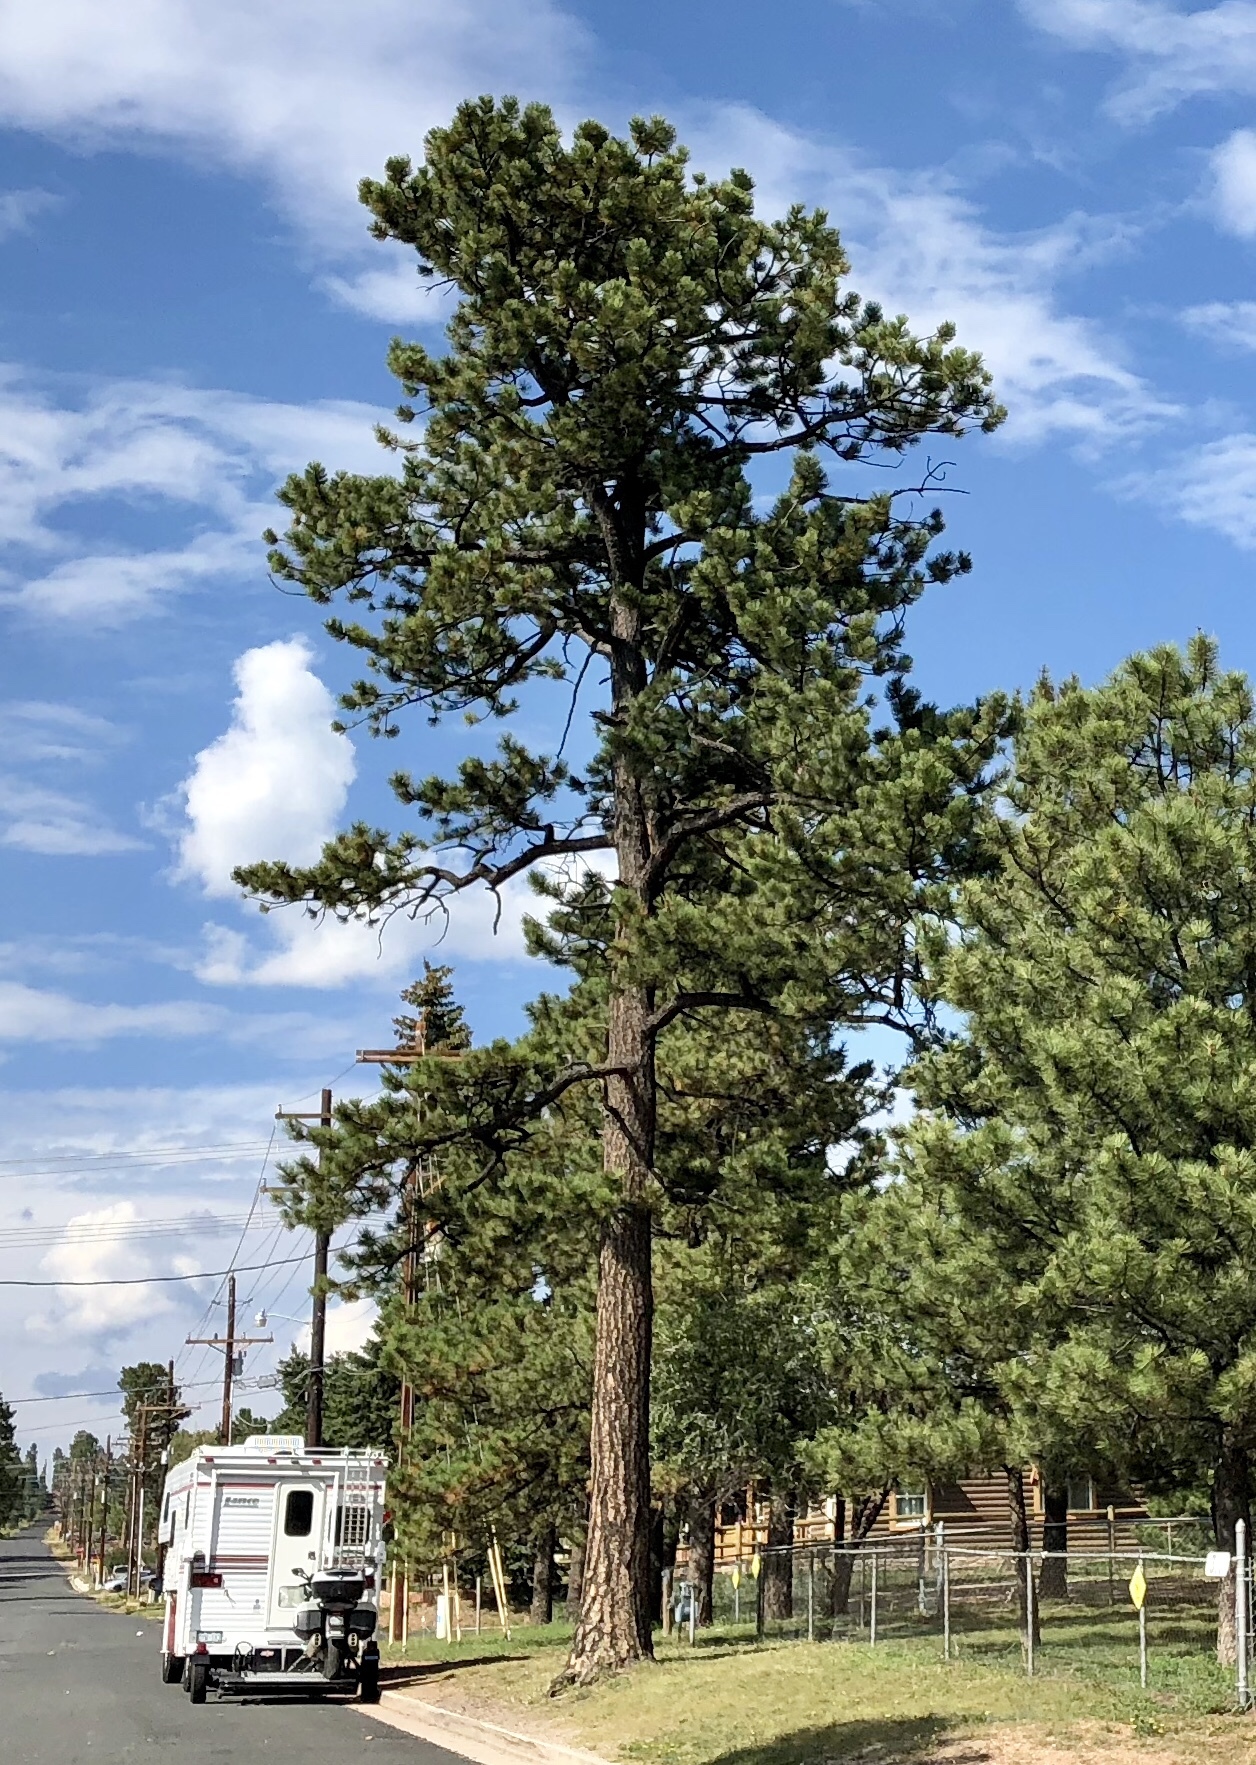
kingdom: Plantae
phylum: Tracheophyta
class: Pinopsida
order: Pinales
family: Pinaceae
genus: Pinus
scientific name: Pinus ponderosa
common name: Western yellow-pine
